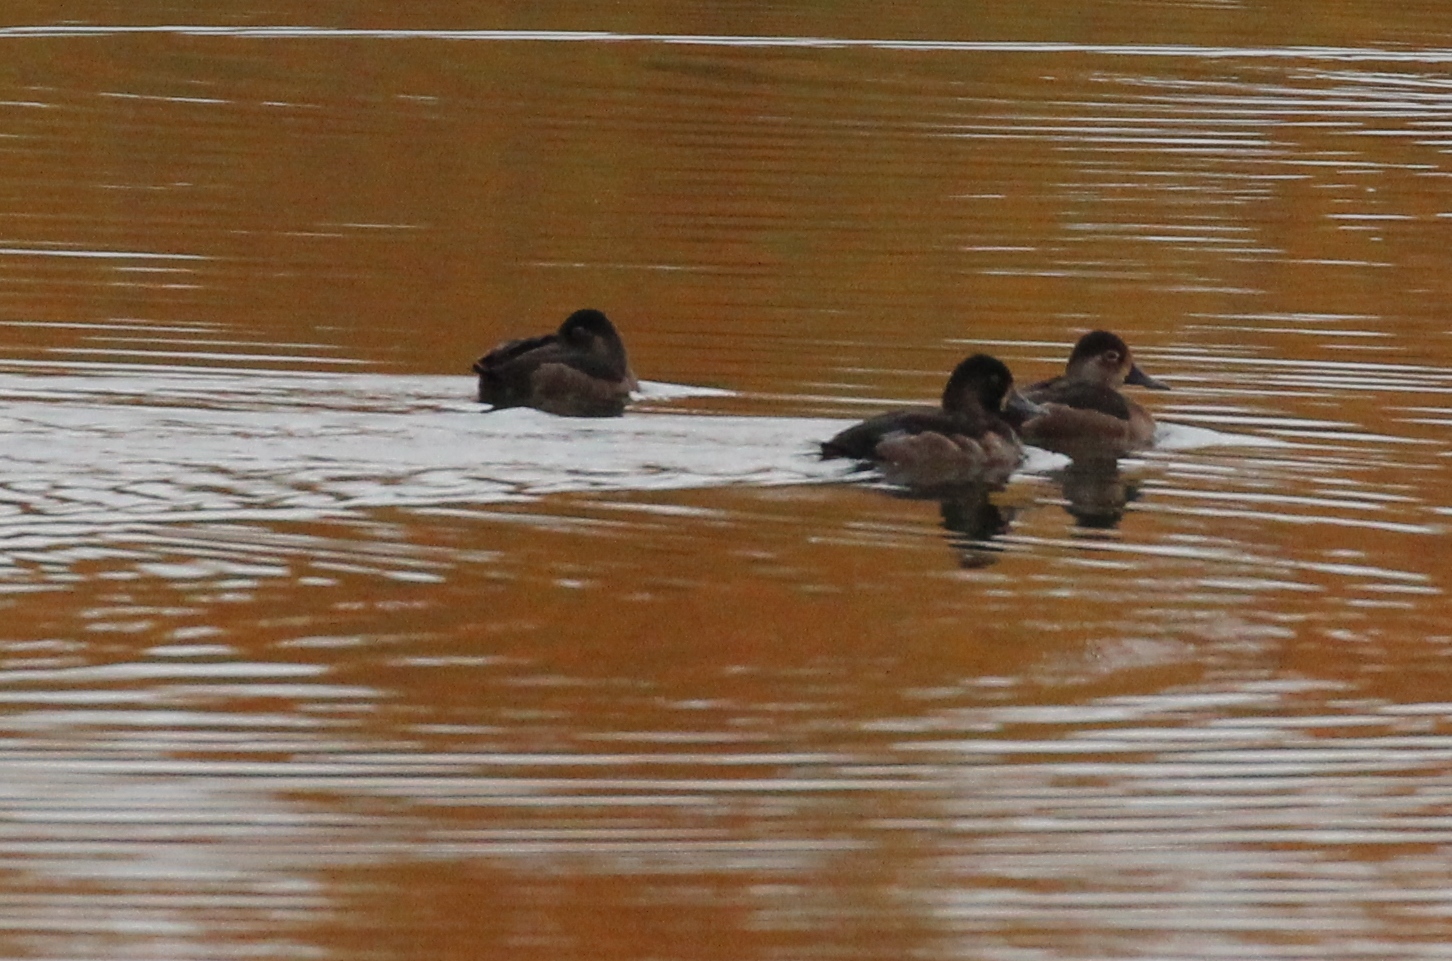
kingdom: Animalia
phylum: Chordata
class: Aves
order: Anseriformes
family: Anatidae
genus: Aythya
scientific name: Aythya collaris
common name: Ring-necked duck
